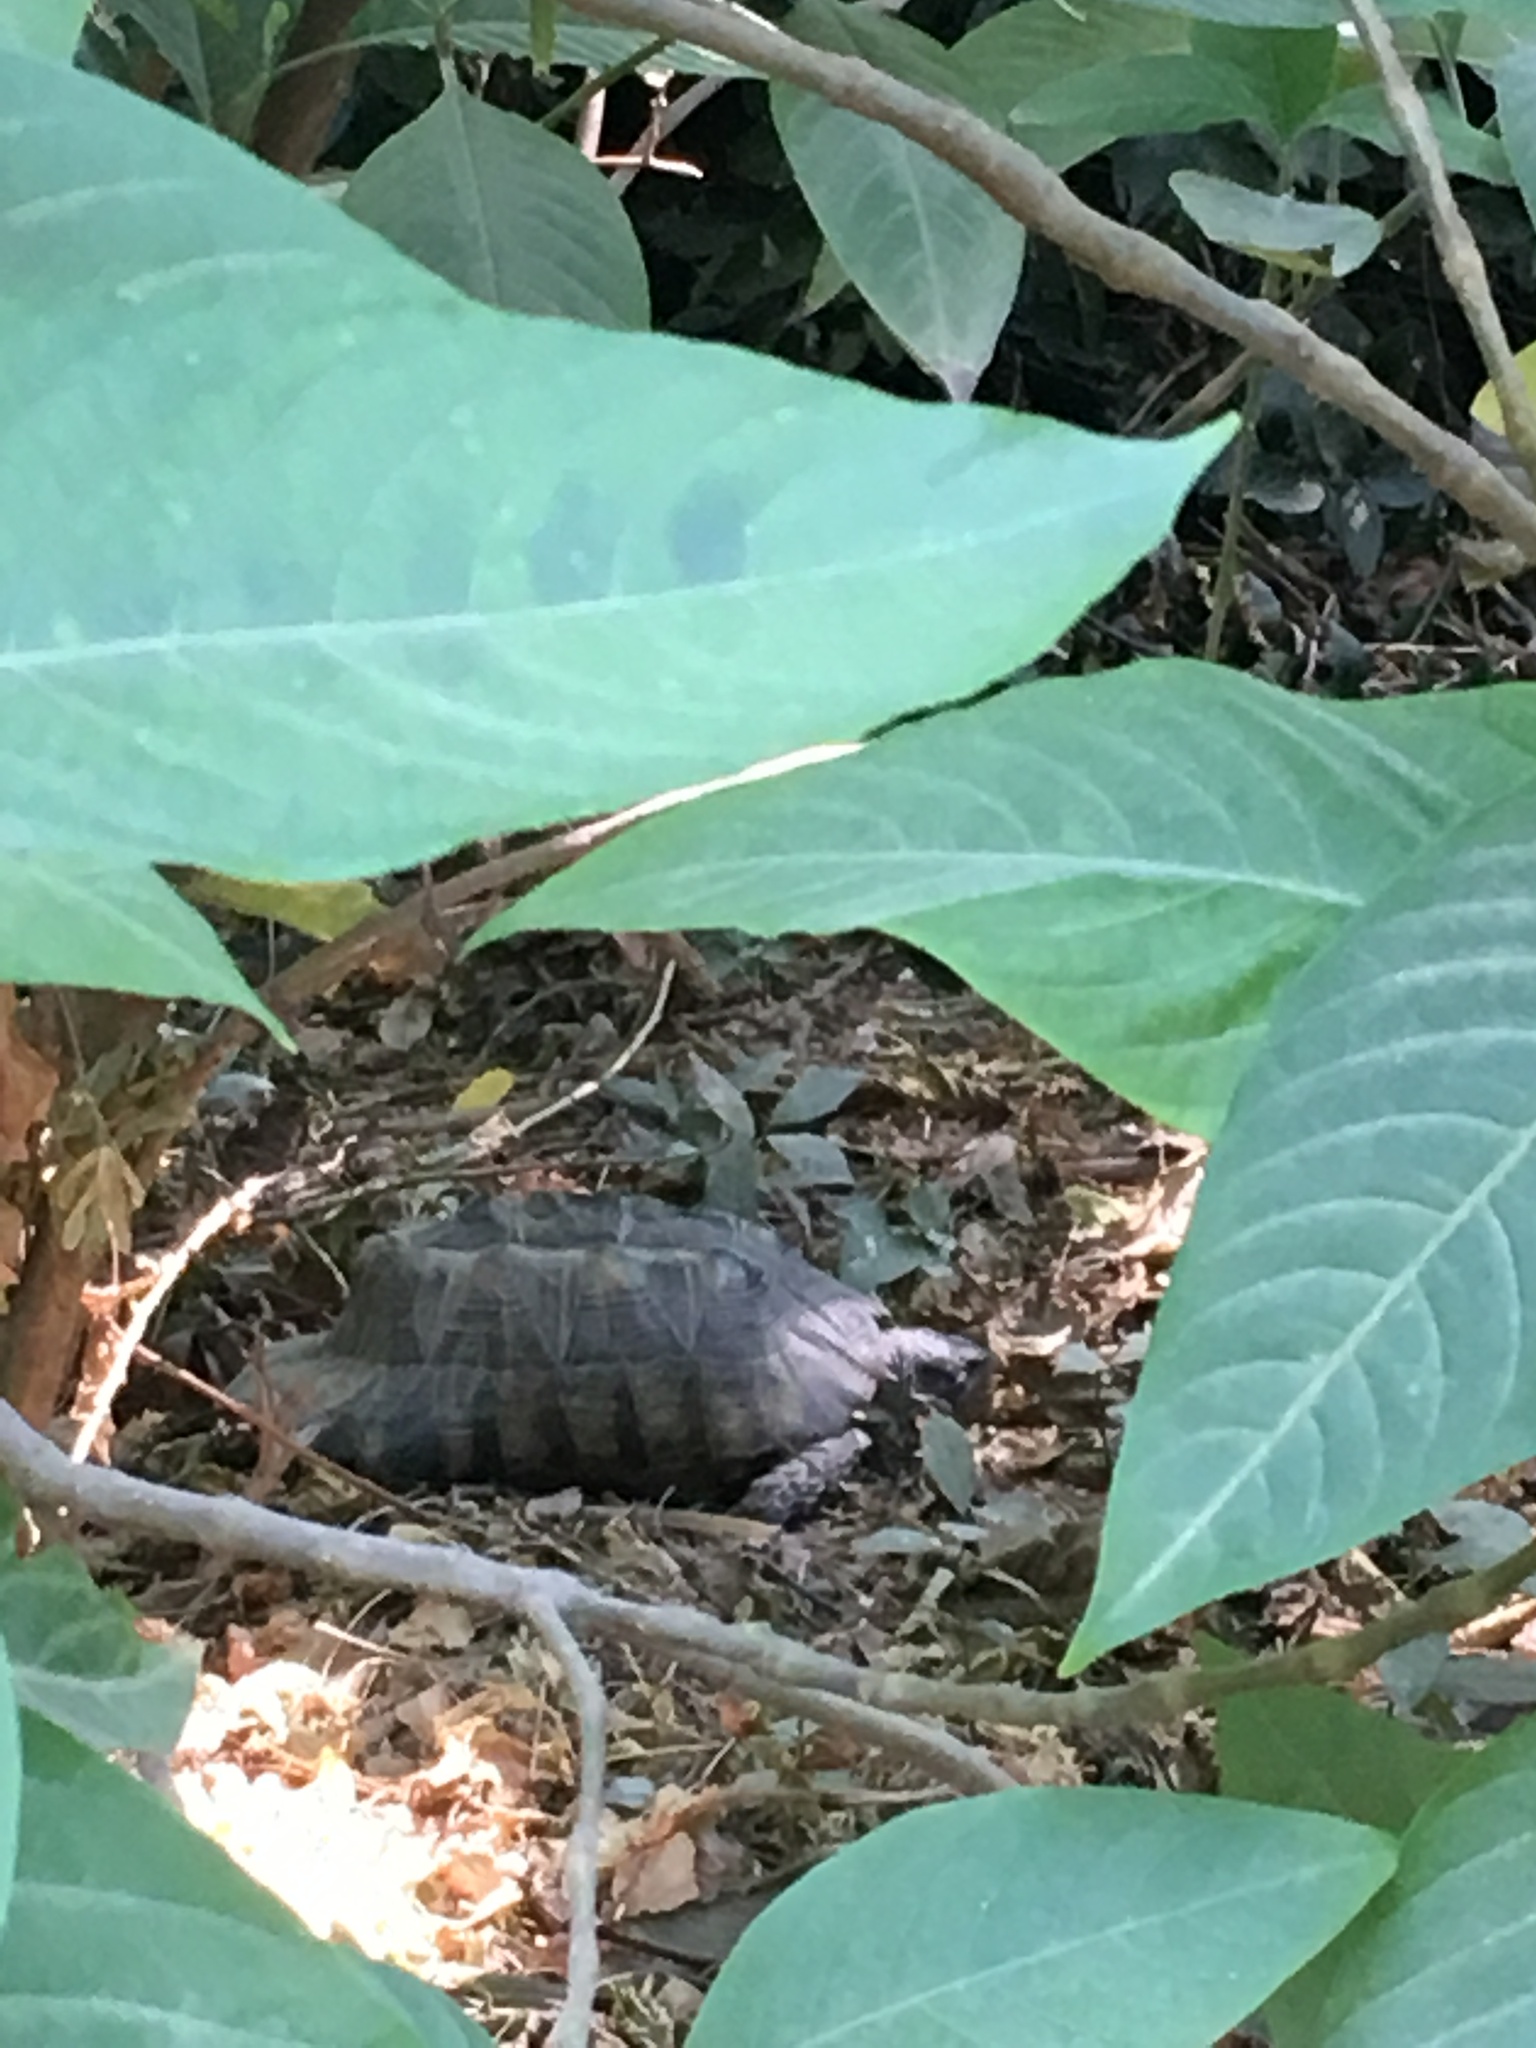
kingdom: Animalia
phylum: Chordata
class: Testudines
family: Testudinidae
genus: Testudo
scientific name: Testudo marginata
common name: Marginated tortoise
